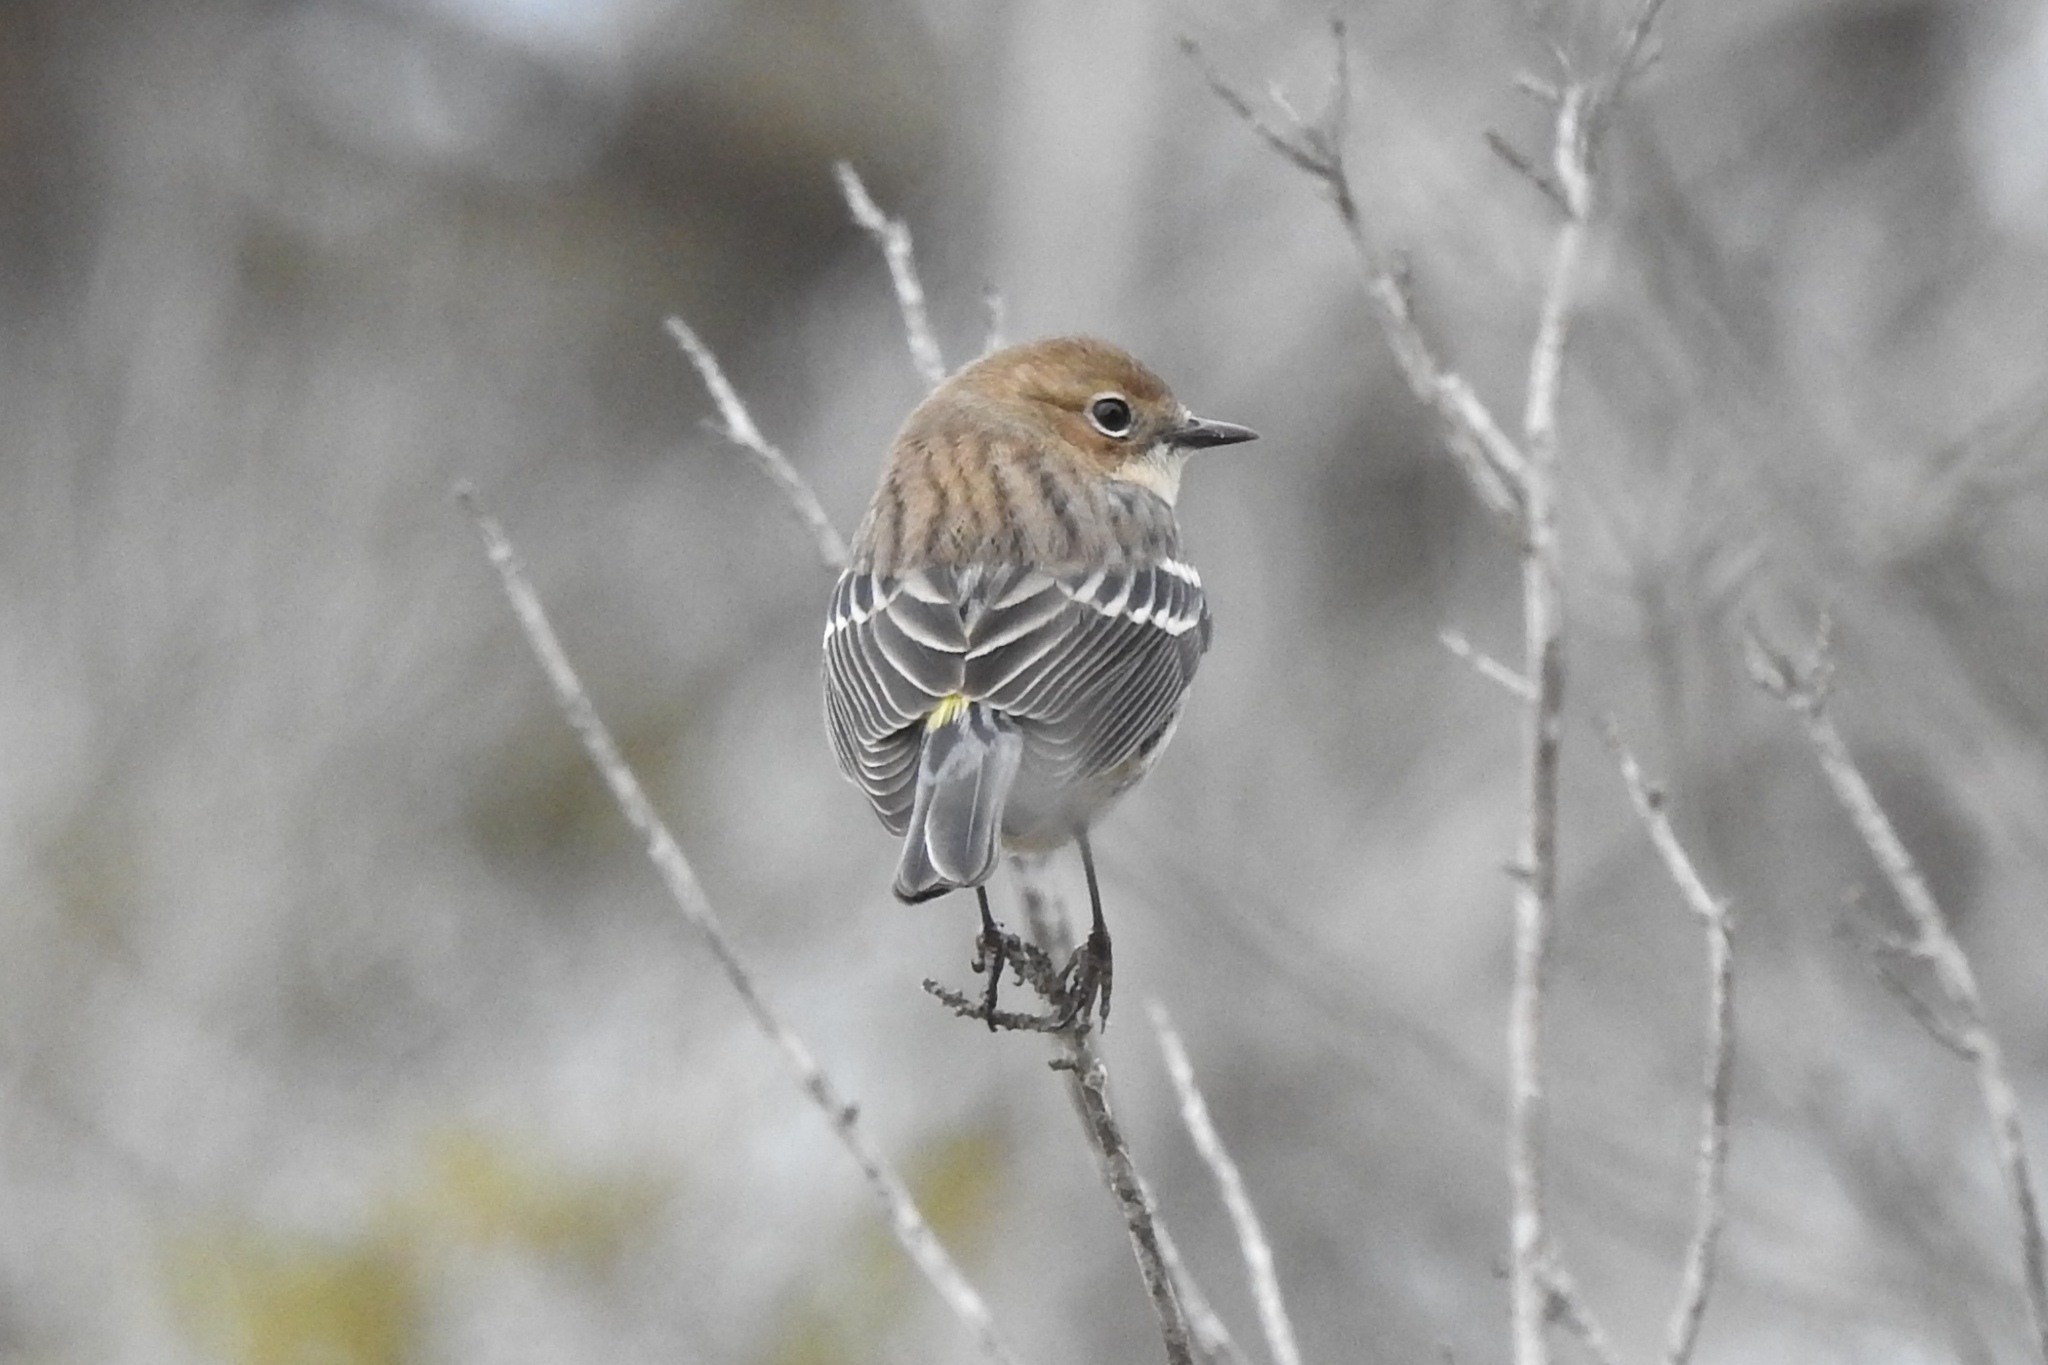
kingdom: Animalia
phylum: Chordata
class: Aves
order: Passeriformes
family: Parulidae
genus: Setophaga
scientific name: Setophaga coronata
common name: Myrtle warbler
